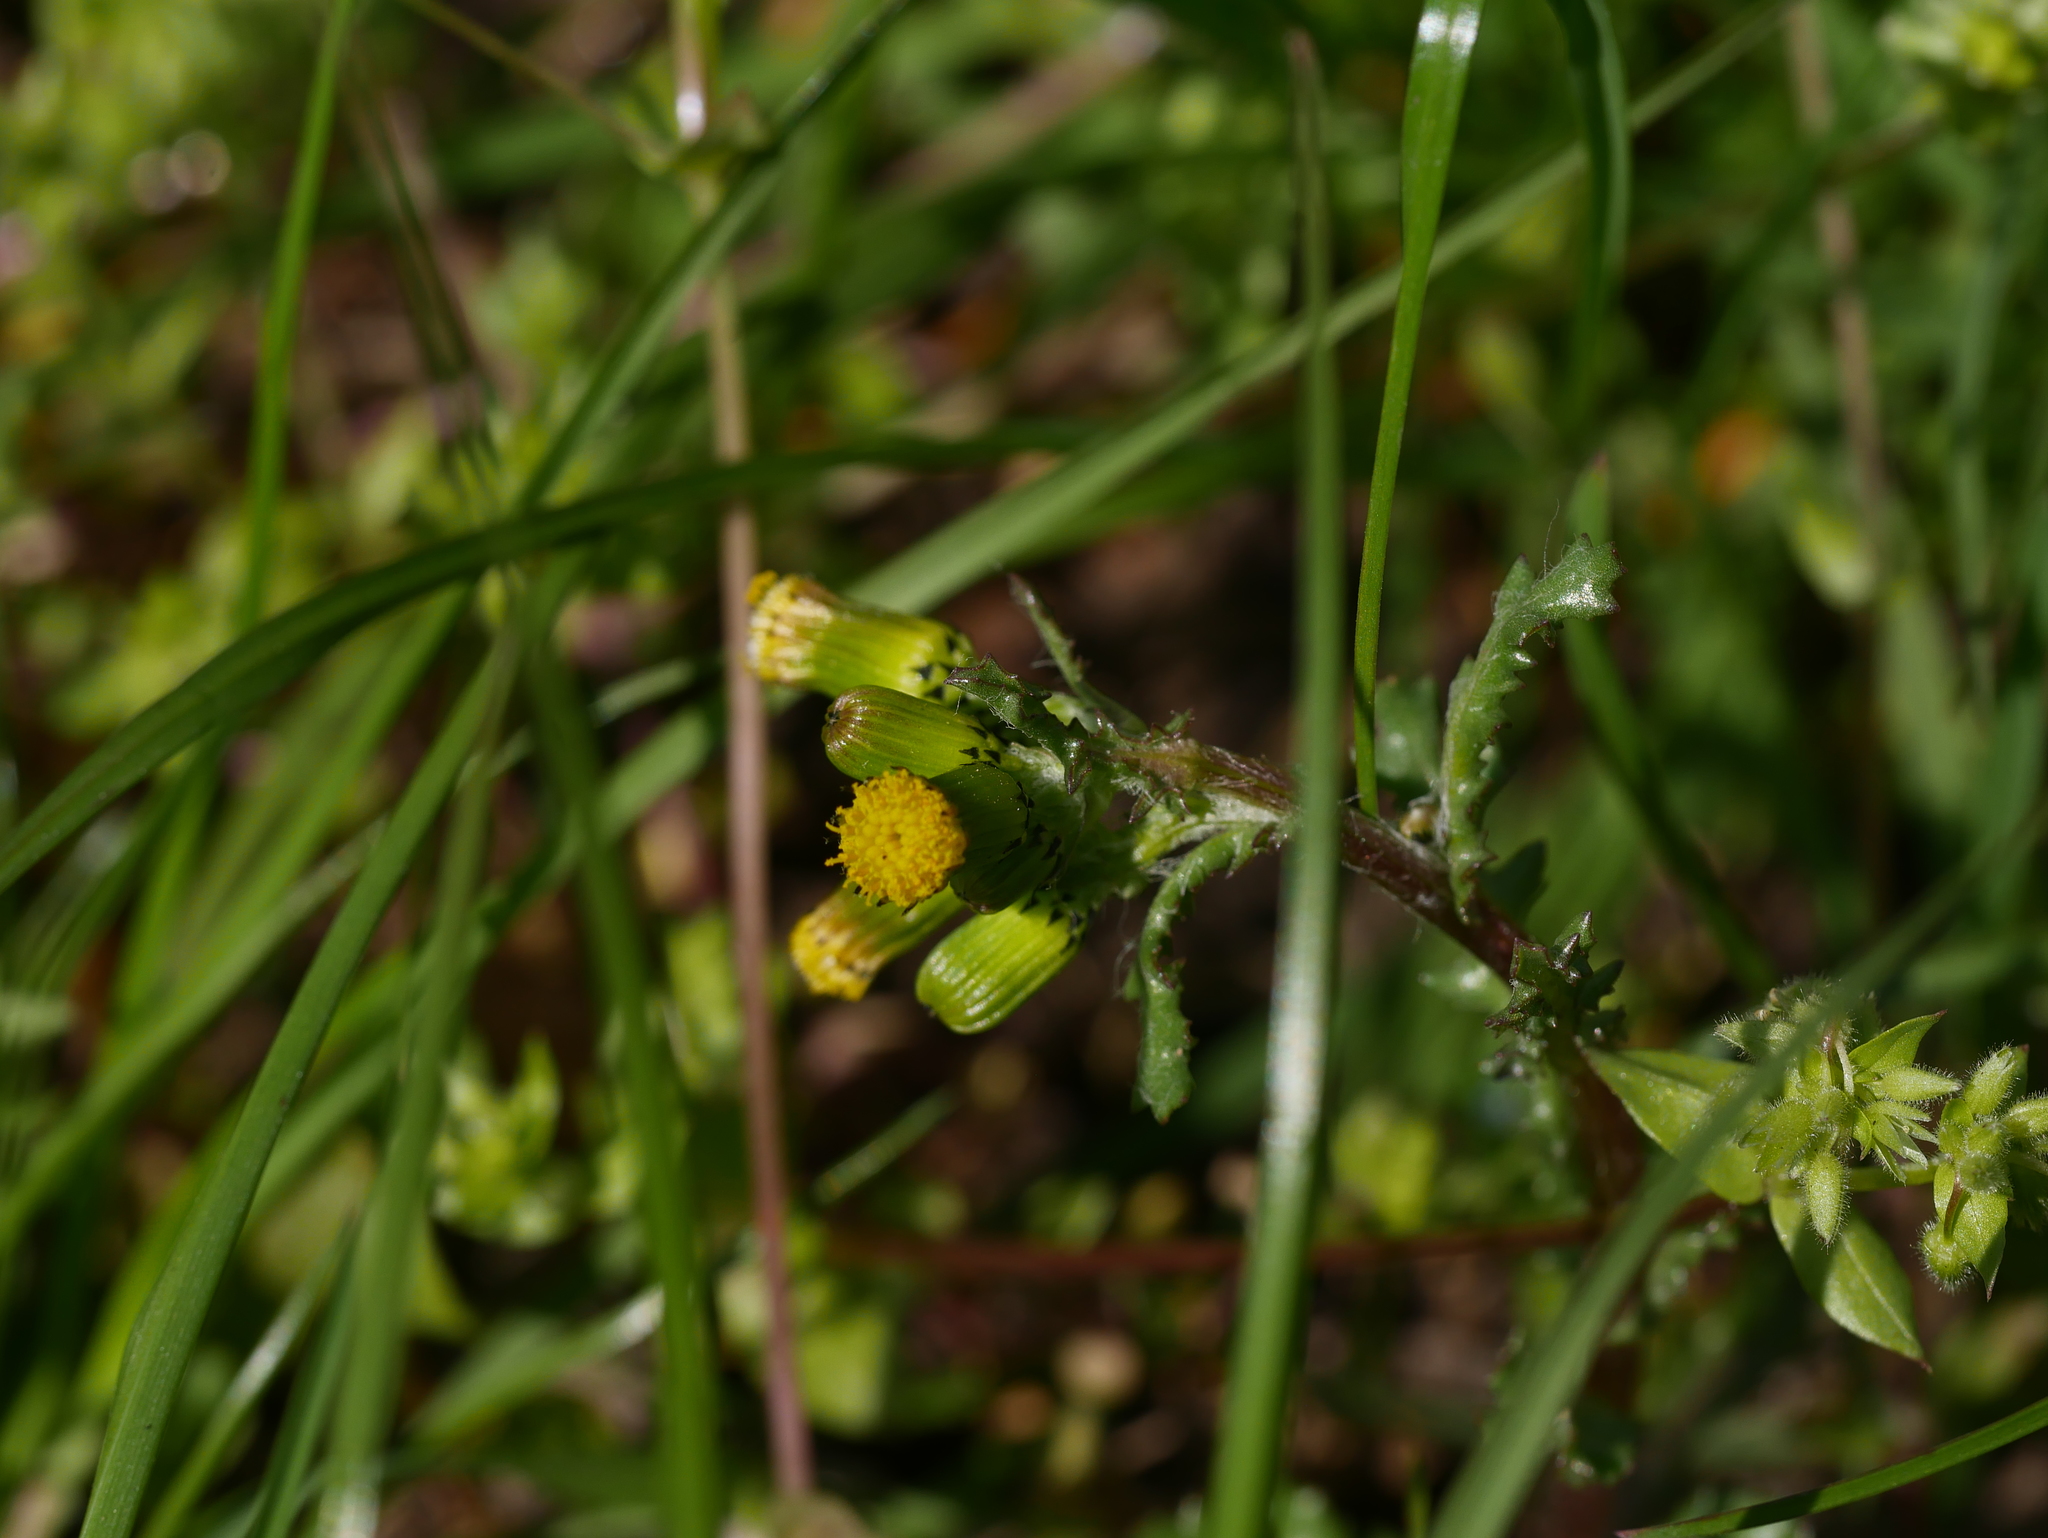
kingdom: Plantae
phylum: Tracheophyta
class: Magnoliopsida
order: Asterales
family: Asteraceae
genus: Senecio
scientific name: Senecio vulgaris
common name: Old-man-in-the-spring
